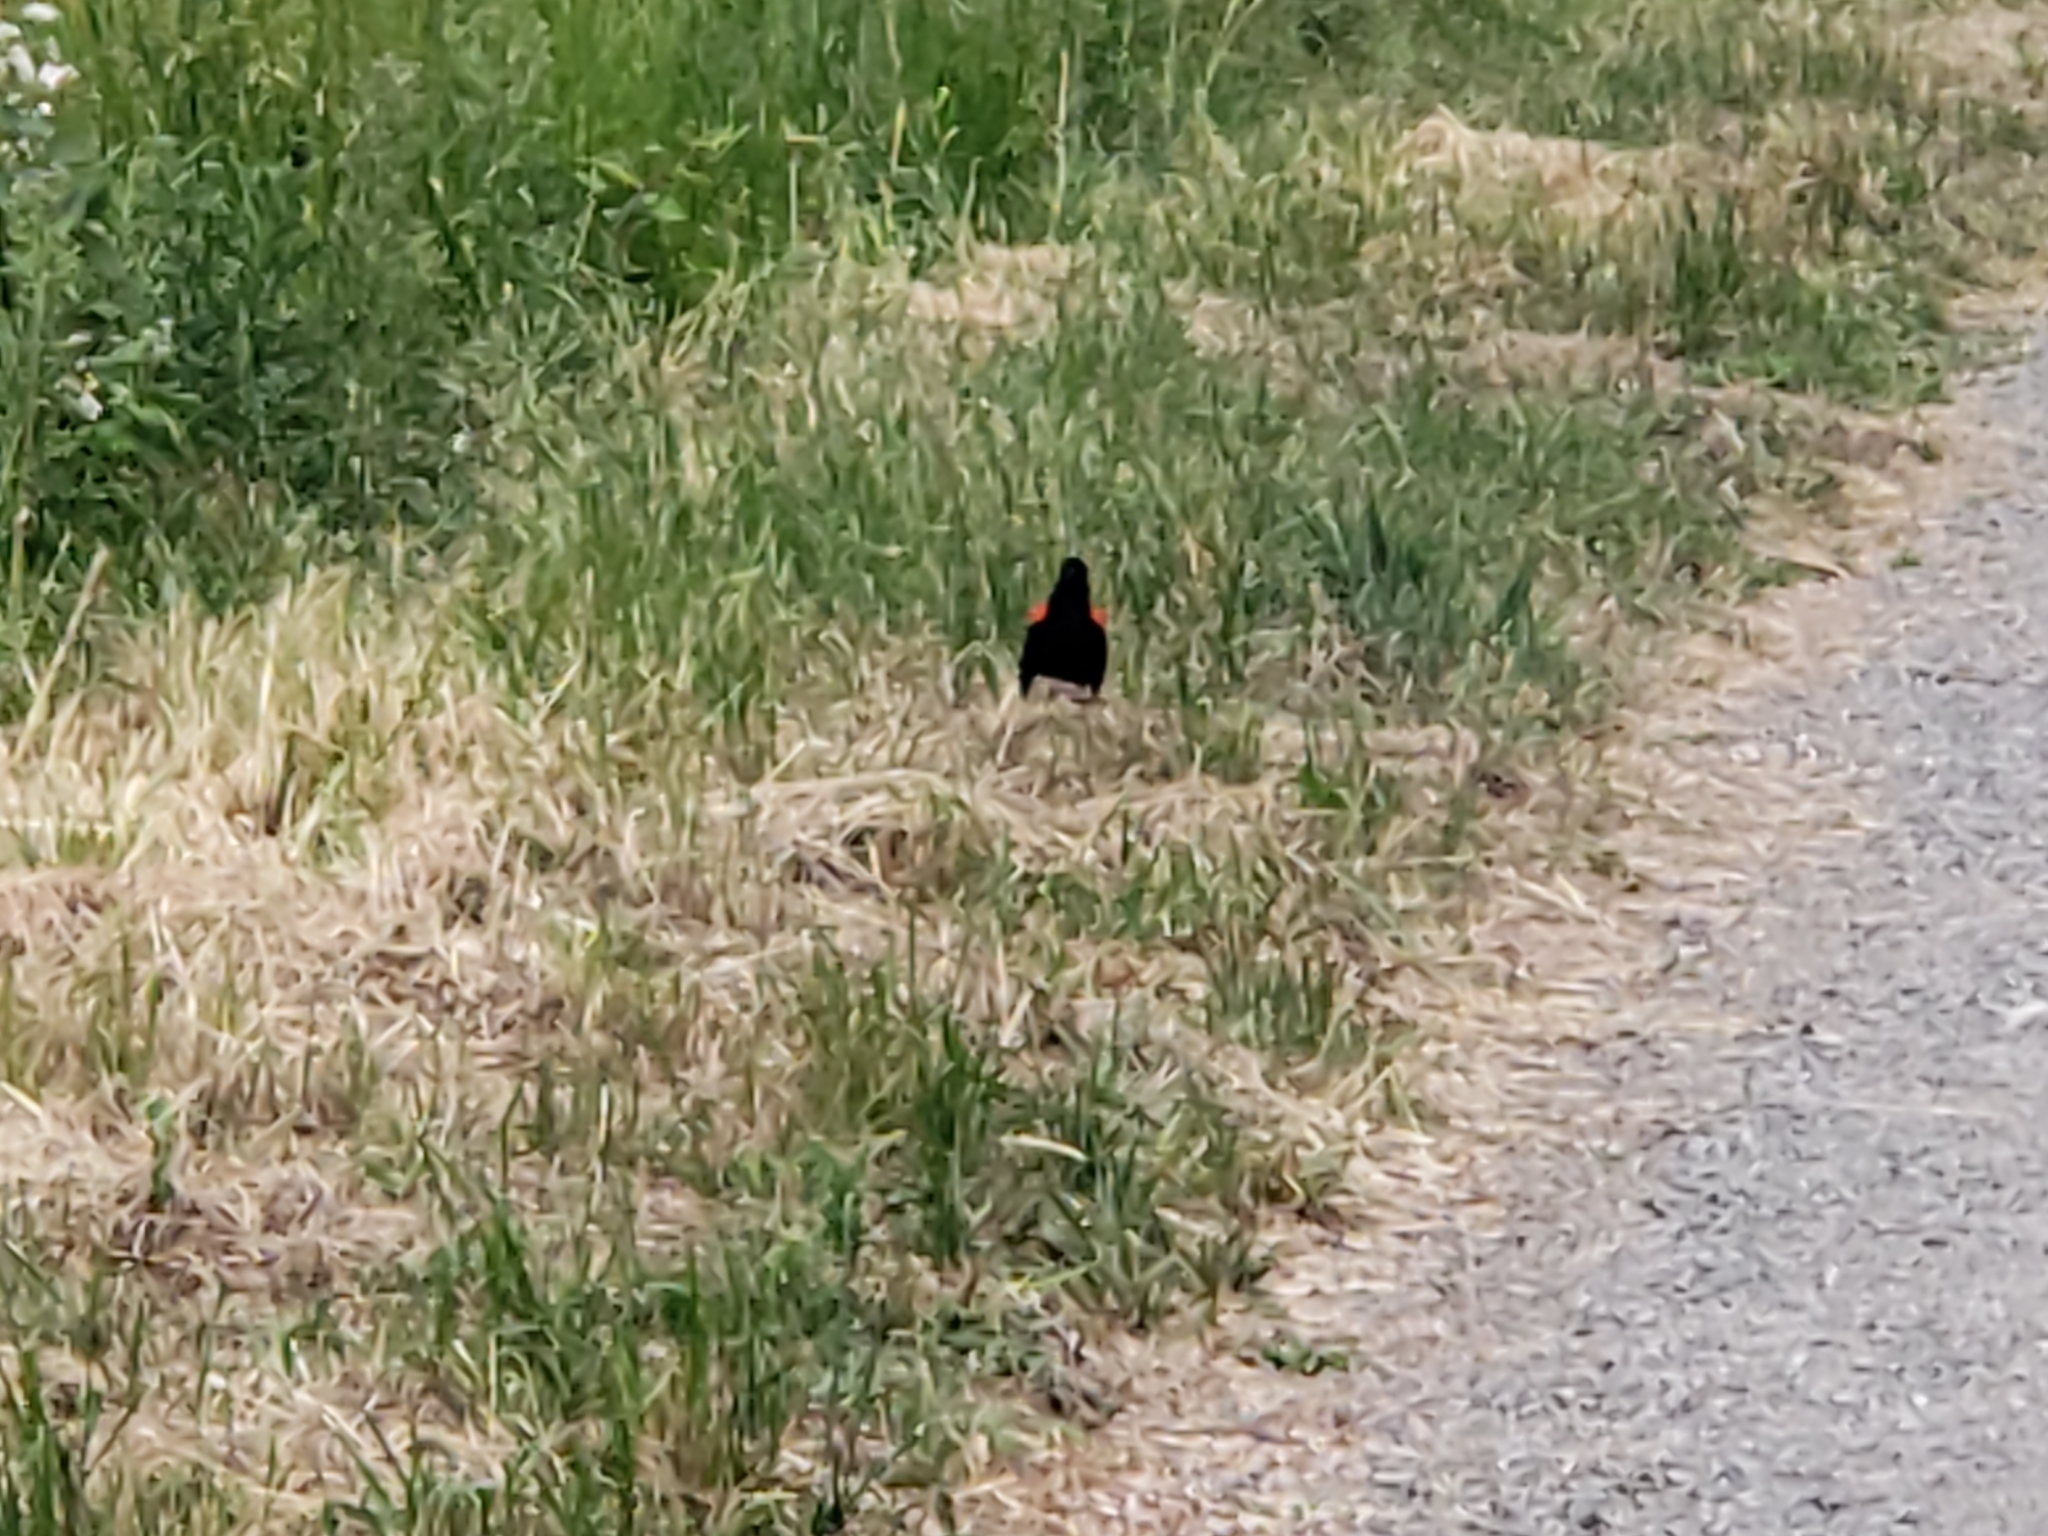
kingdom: Animalia
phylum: Chordata
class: Aves
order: Passeriformes
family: Icteridae
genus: Agelaius
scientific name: Agelaius phoeniceus
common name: Red-winged blackbird
